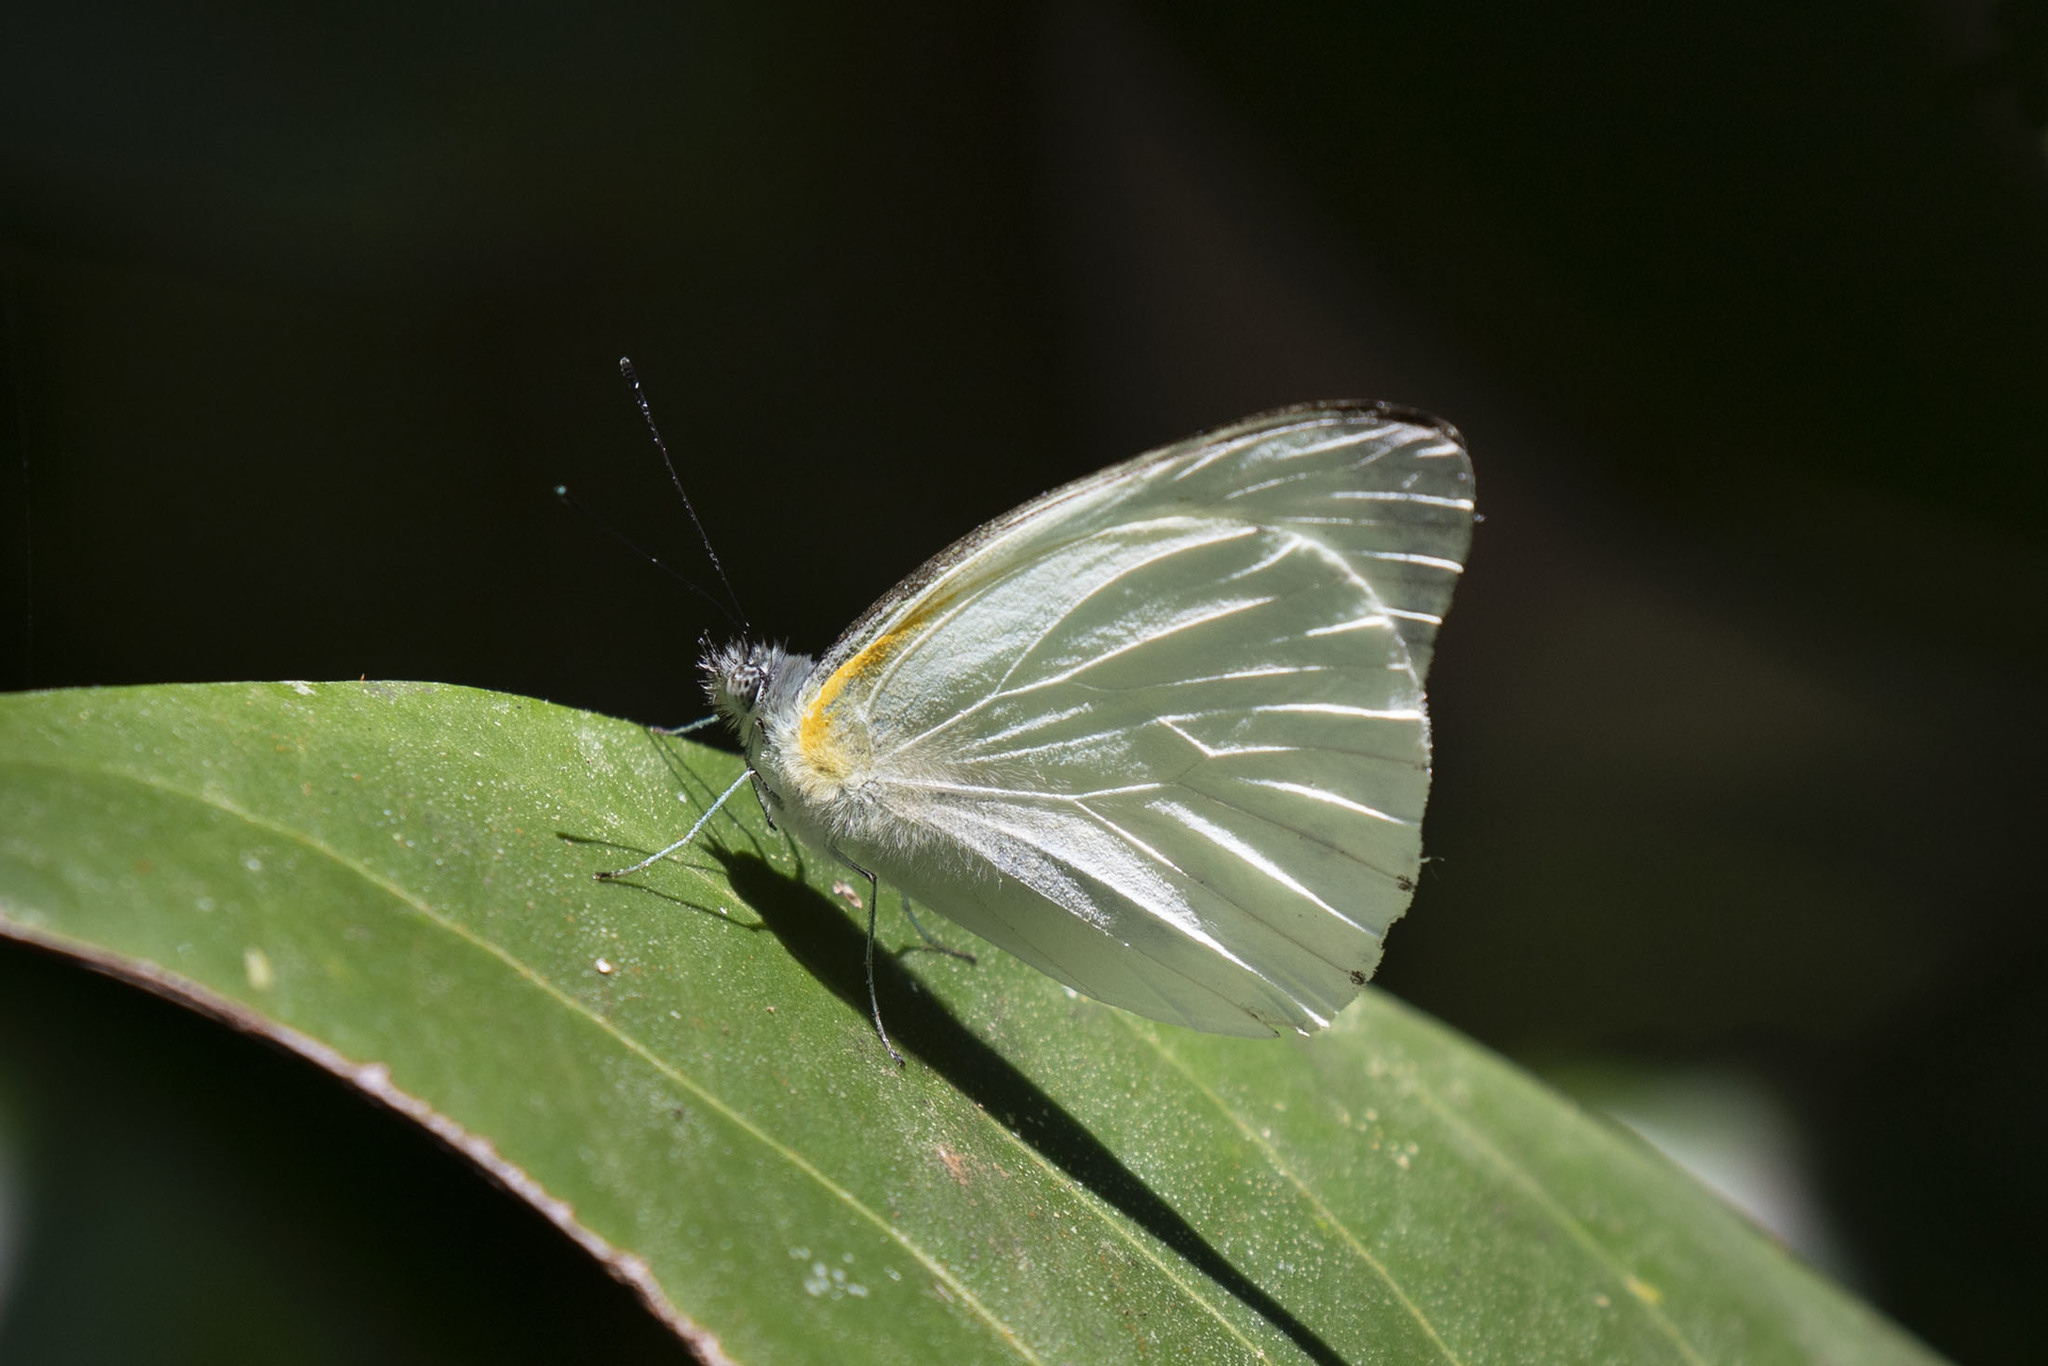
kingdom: Animalia
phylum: Arthropoda
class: Insecta
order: Lepidoptera
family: Pieridae
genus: Glutophrissa
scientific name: Glutophrissa sabina
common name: Sabine albatross
